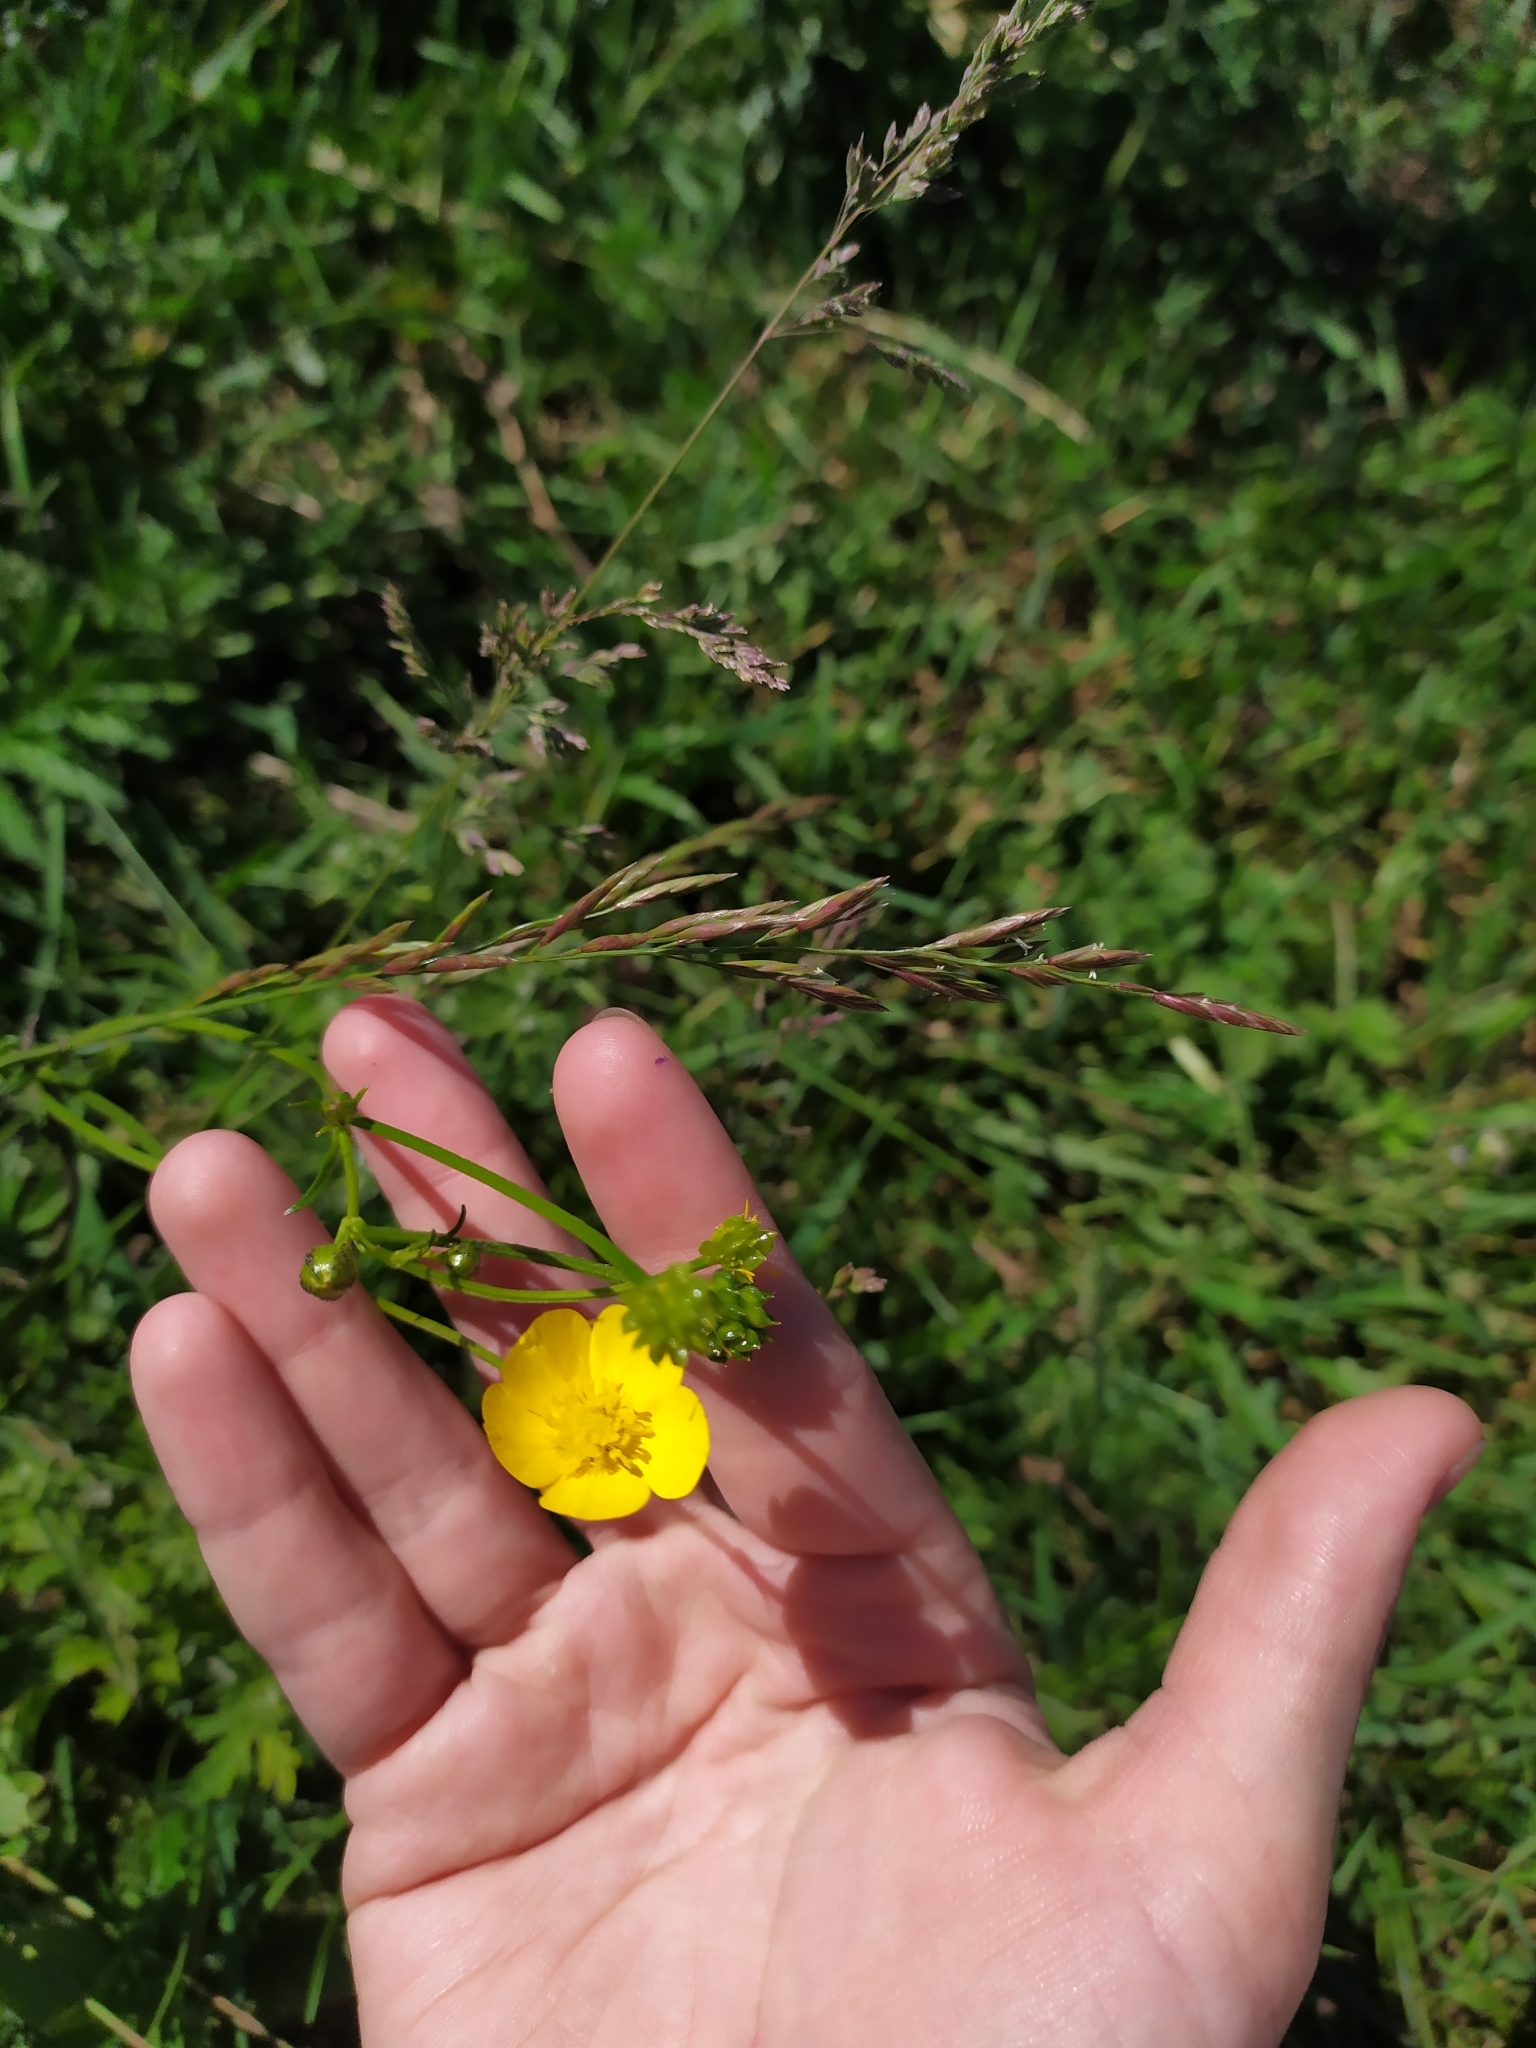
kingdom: Plantae
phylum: Tracheophyta
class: Magnoliopsida
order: Ranunculales
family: Ranunculaceae
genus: Ranunculus
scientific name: Ranunculus polyanthemos
